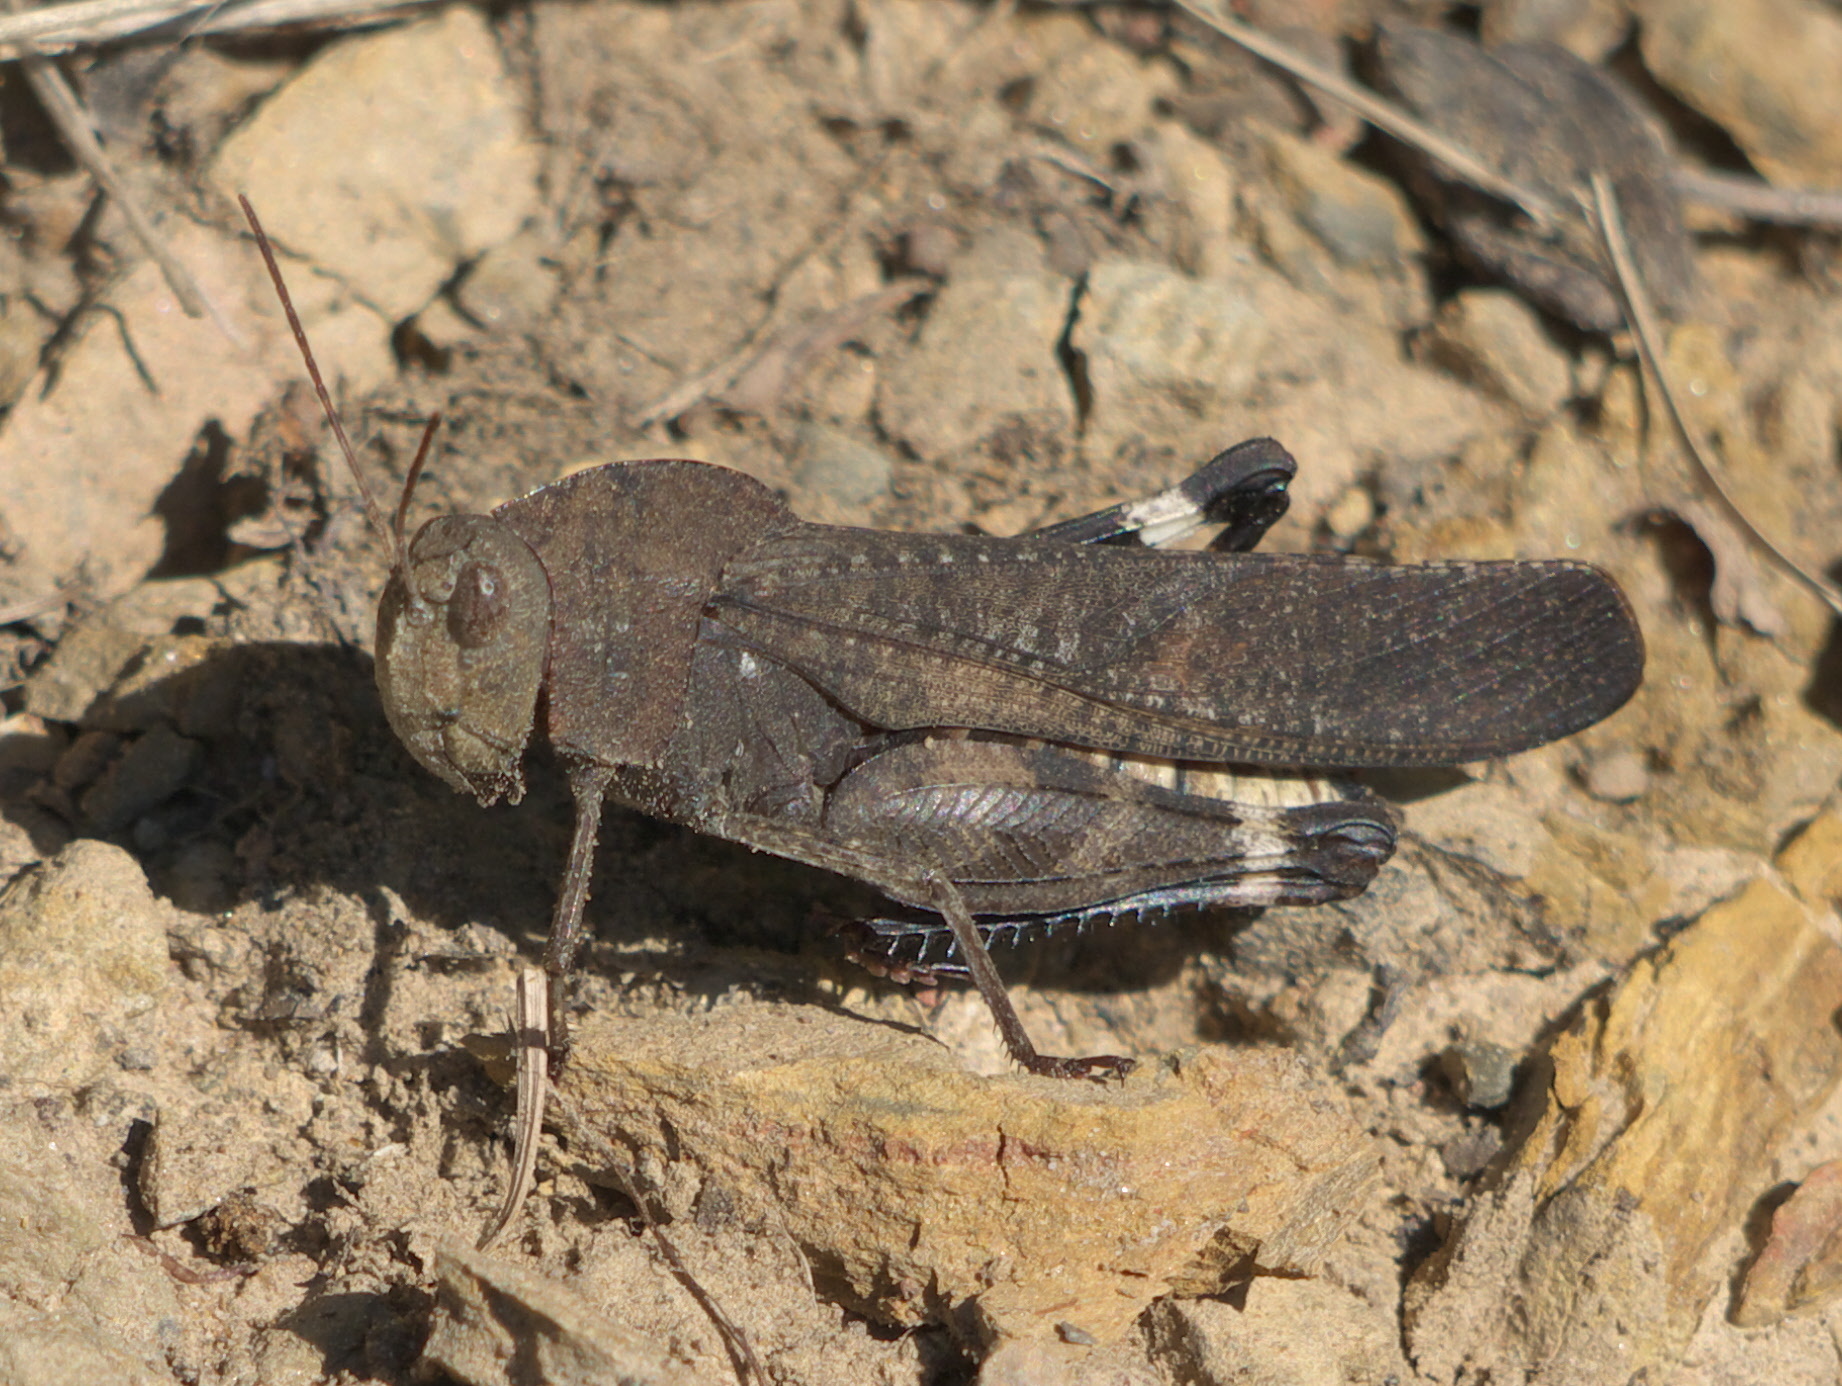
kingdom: Animalia
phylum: Arthropoda
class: Insecta
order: Orthoptera
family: Acrididae
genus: Arphia
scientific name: Arphia xanthoptera
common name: Autumn yellow-winged grasshopper
